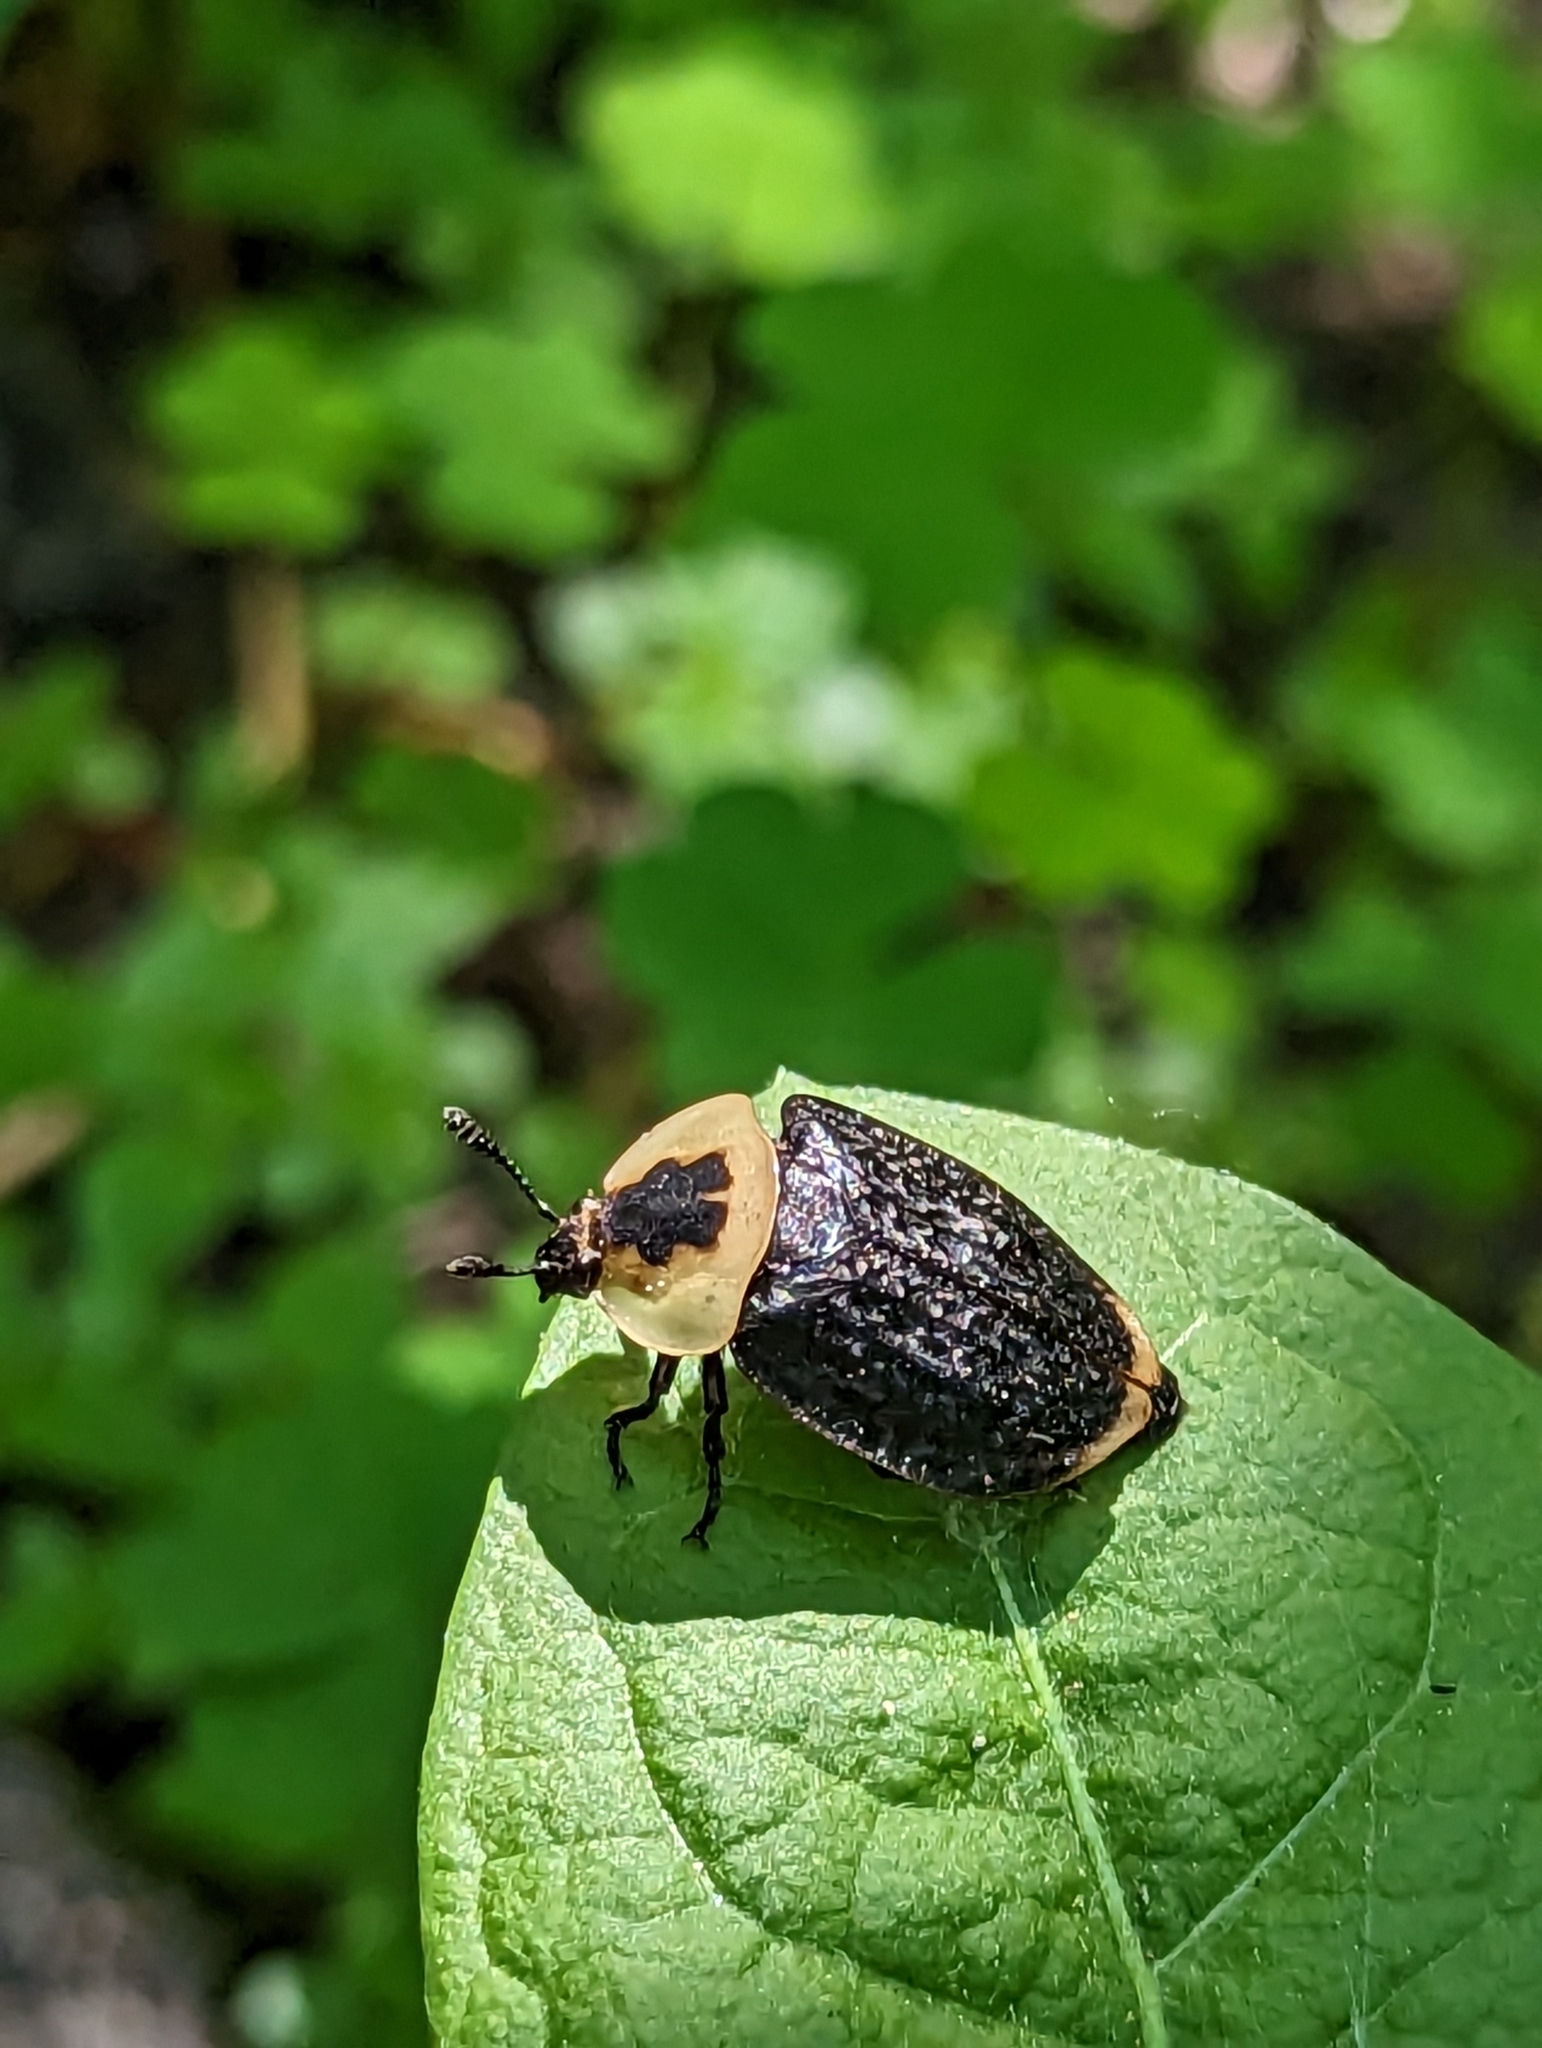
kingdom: Animalia
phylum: Arthropoda
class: Insecta
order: Coleoptera
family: Staphylinidae
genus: Necrophila
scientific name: Necrophila americana
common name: American carrion beetle
